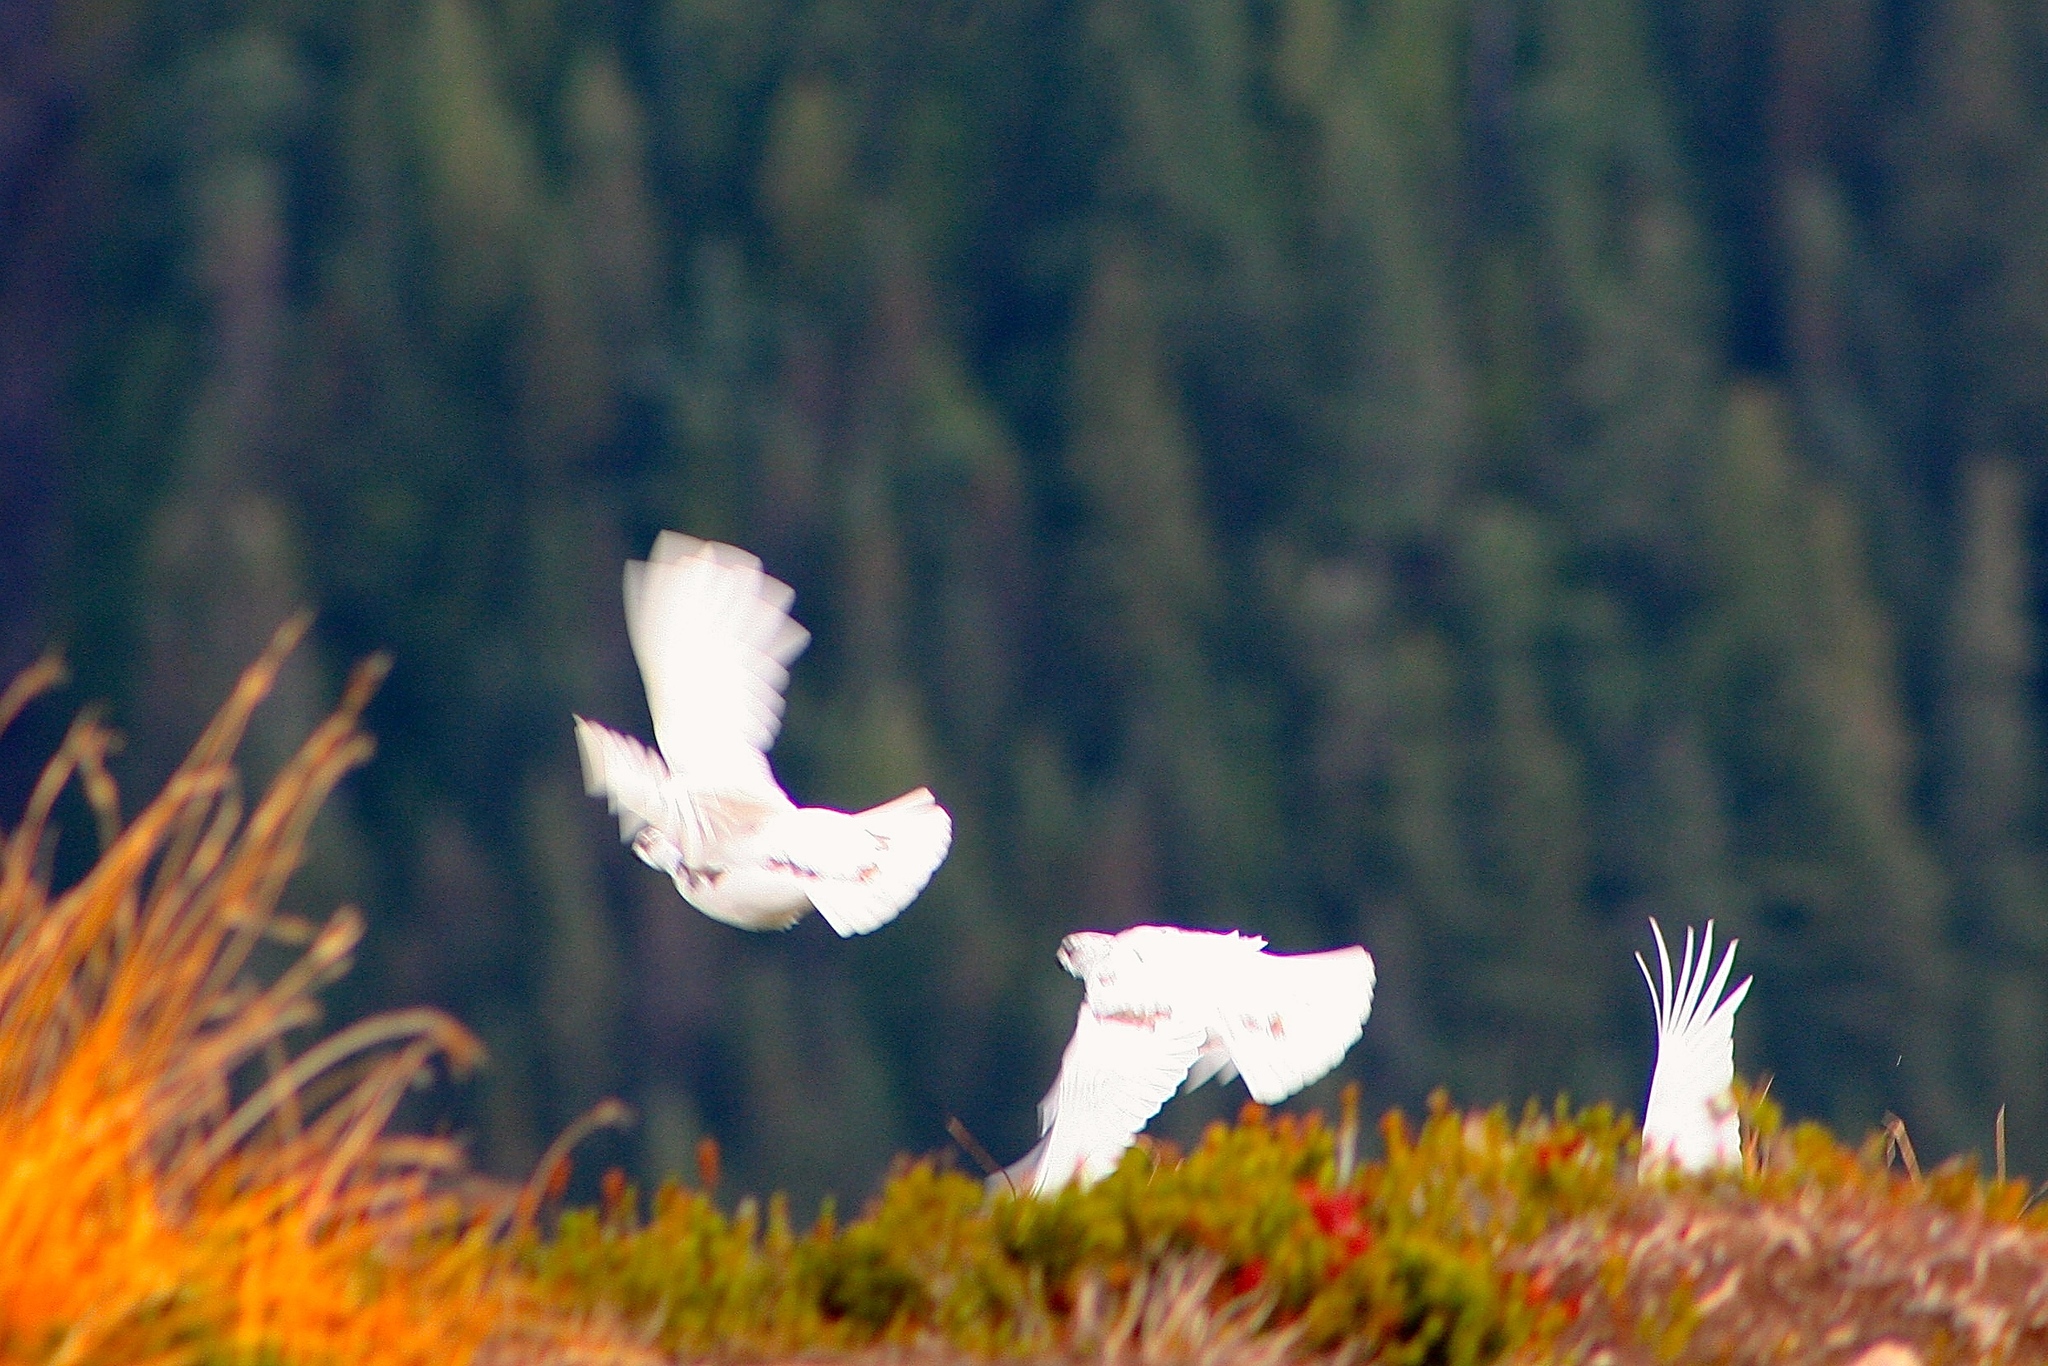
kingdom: Animalia
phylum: Chordata
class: Aves
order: Galliformes
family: Phasianidae
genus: Lagopus
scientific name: Lagopus leucura
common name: White-tailed ptarmigan
